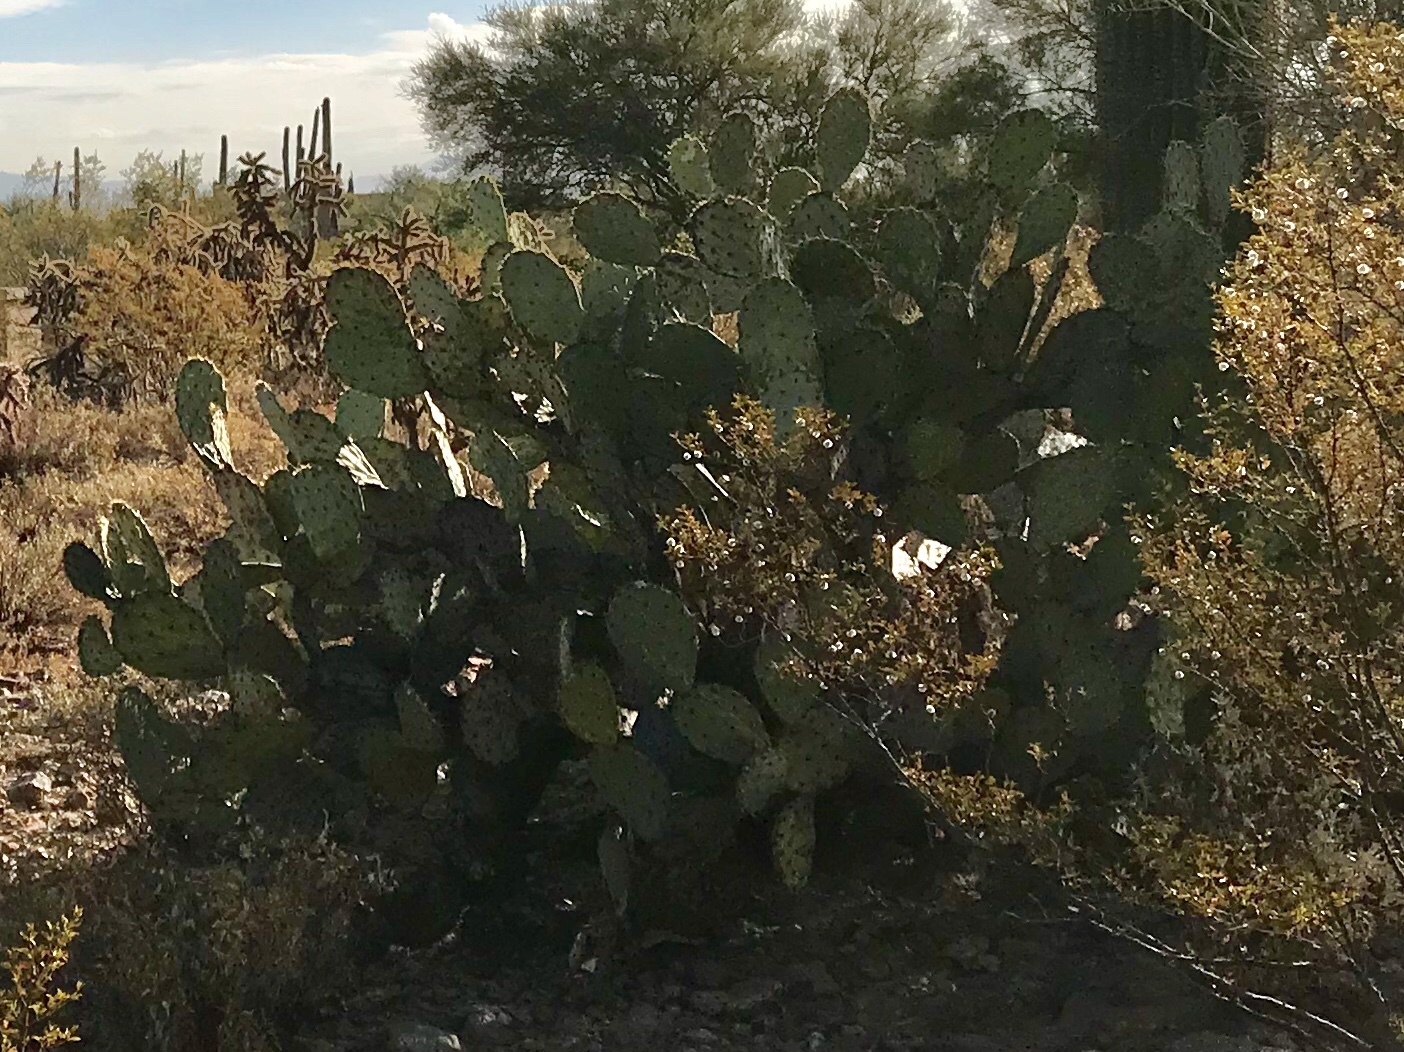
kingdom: Plantae
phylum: Tracheophyta
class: Magnoliopsida
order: Caryophyllales
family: Cactaceae
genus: Opuntia
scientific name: Opuntia engelmannii
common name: Cactus-apple
